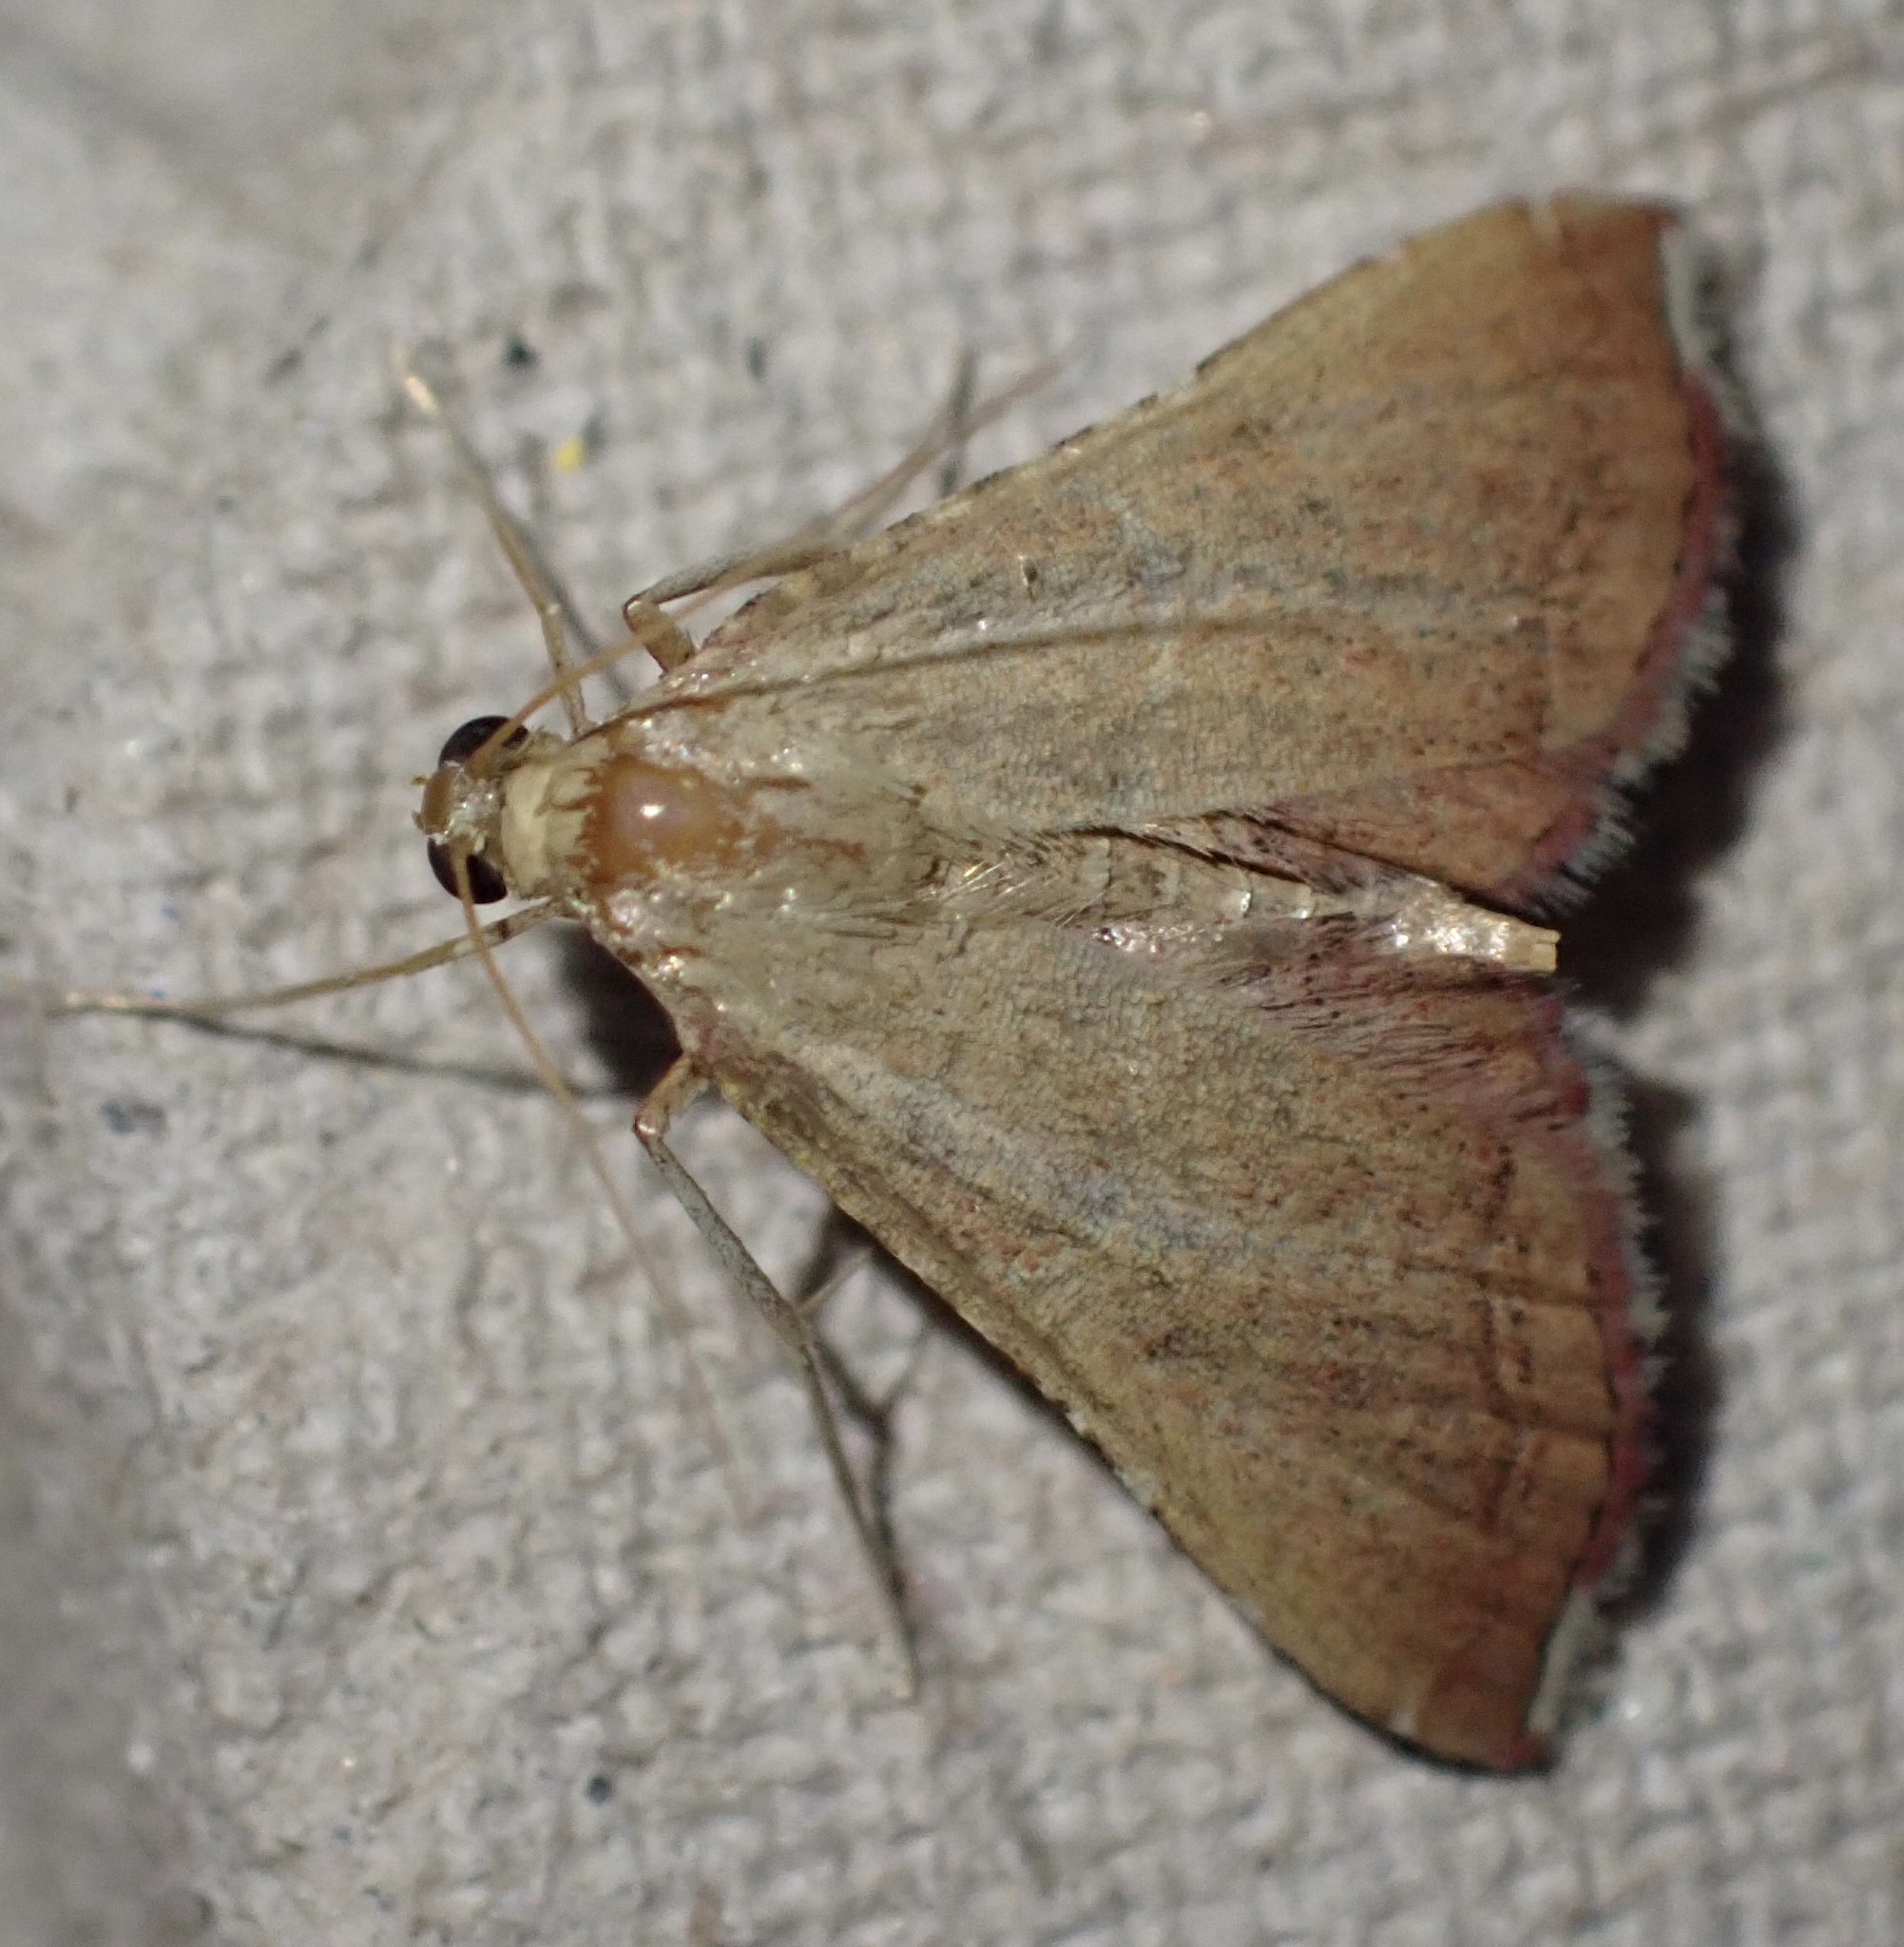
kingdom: Animalia
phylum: Arthropoda
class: Insecta
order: Lepidoptera
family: Pyralidae
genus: Endotricha
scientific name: Endotricha flammealis
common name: Rosy tabby
